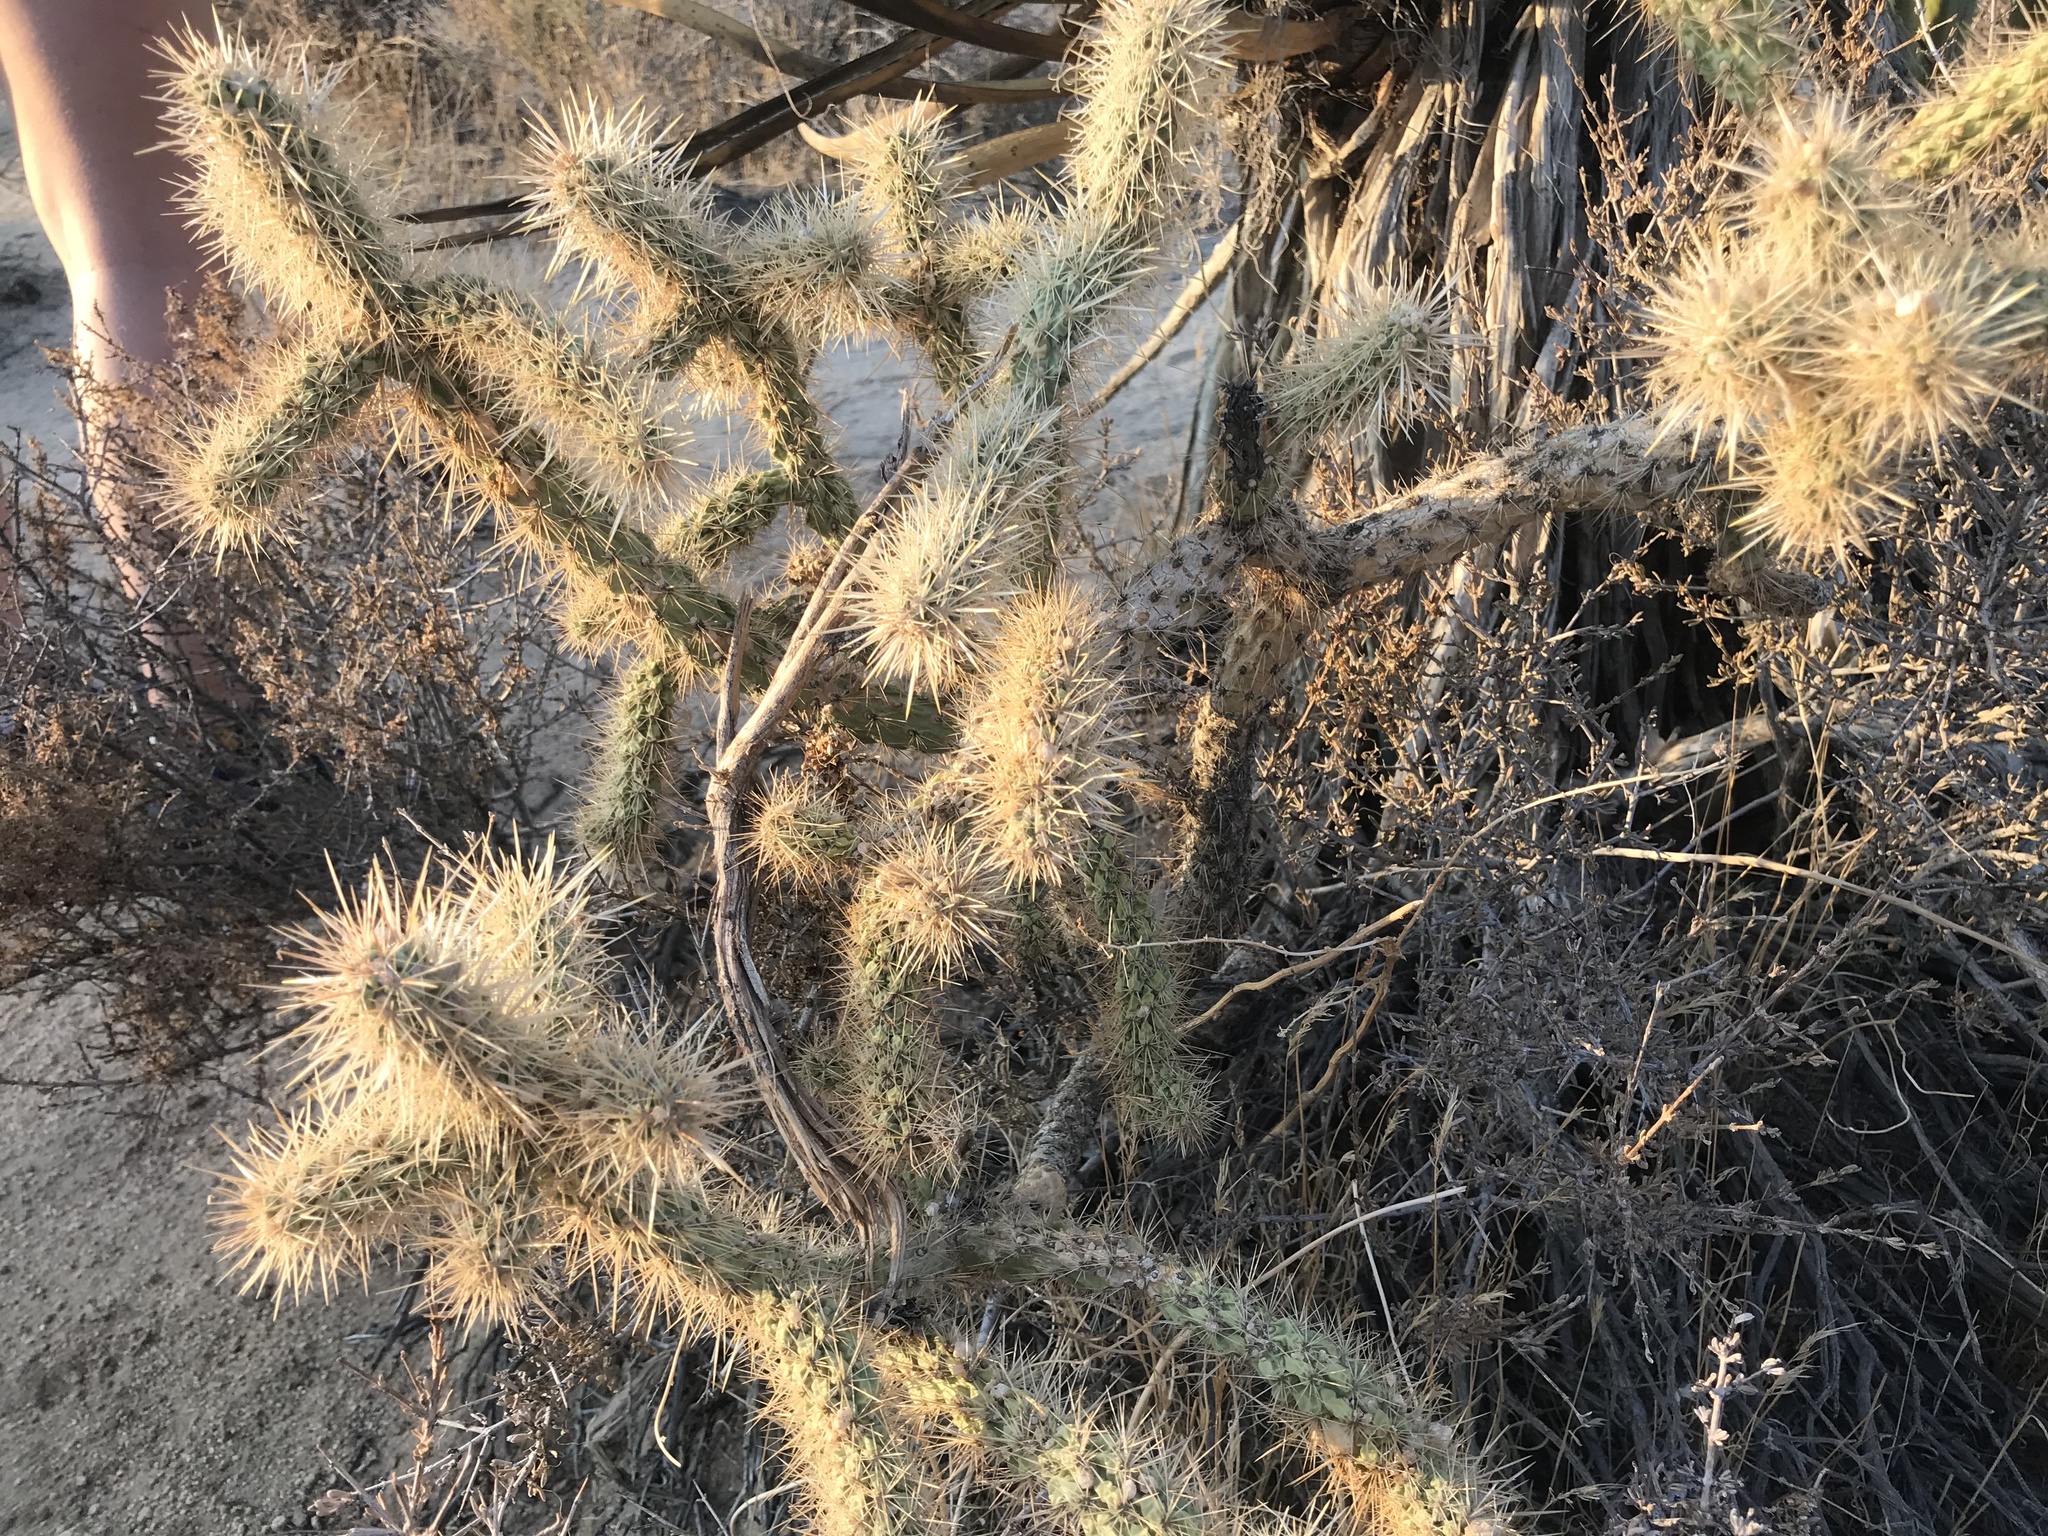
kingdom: Plantae
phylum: Tracheophyta
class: Magnoliopsida
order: Caryophyllales
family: Cactaceae
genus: Cylindropuntia
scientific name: Cylindropuntia echinocarpa
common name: Ground cholla
